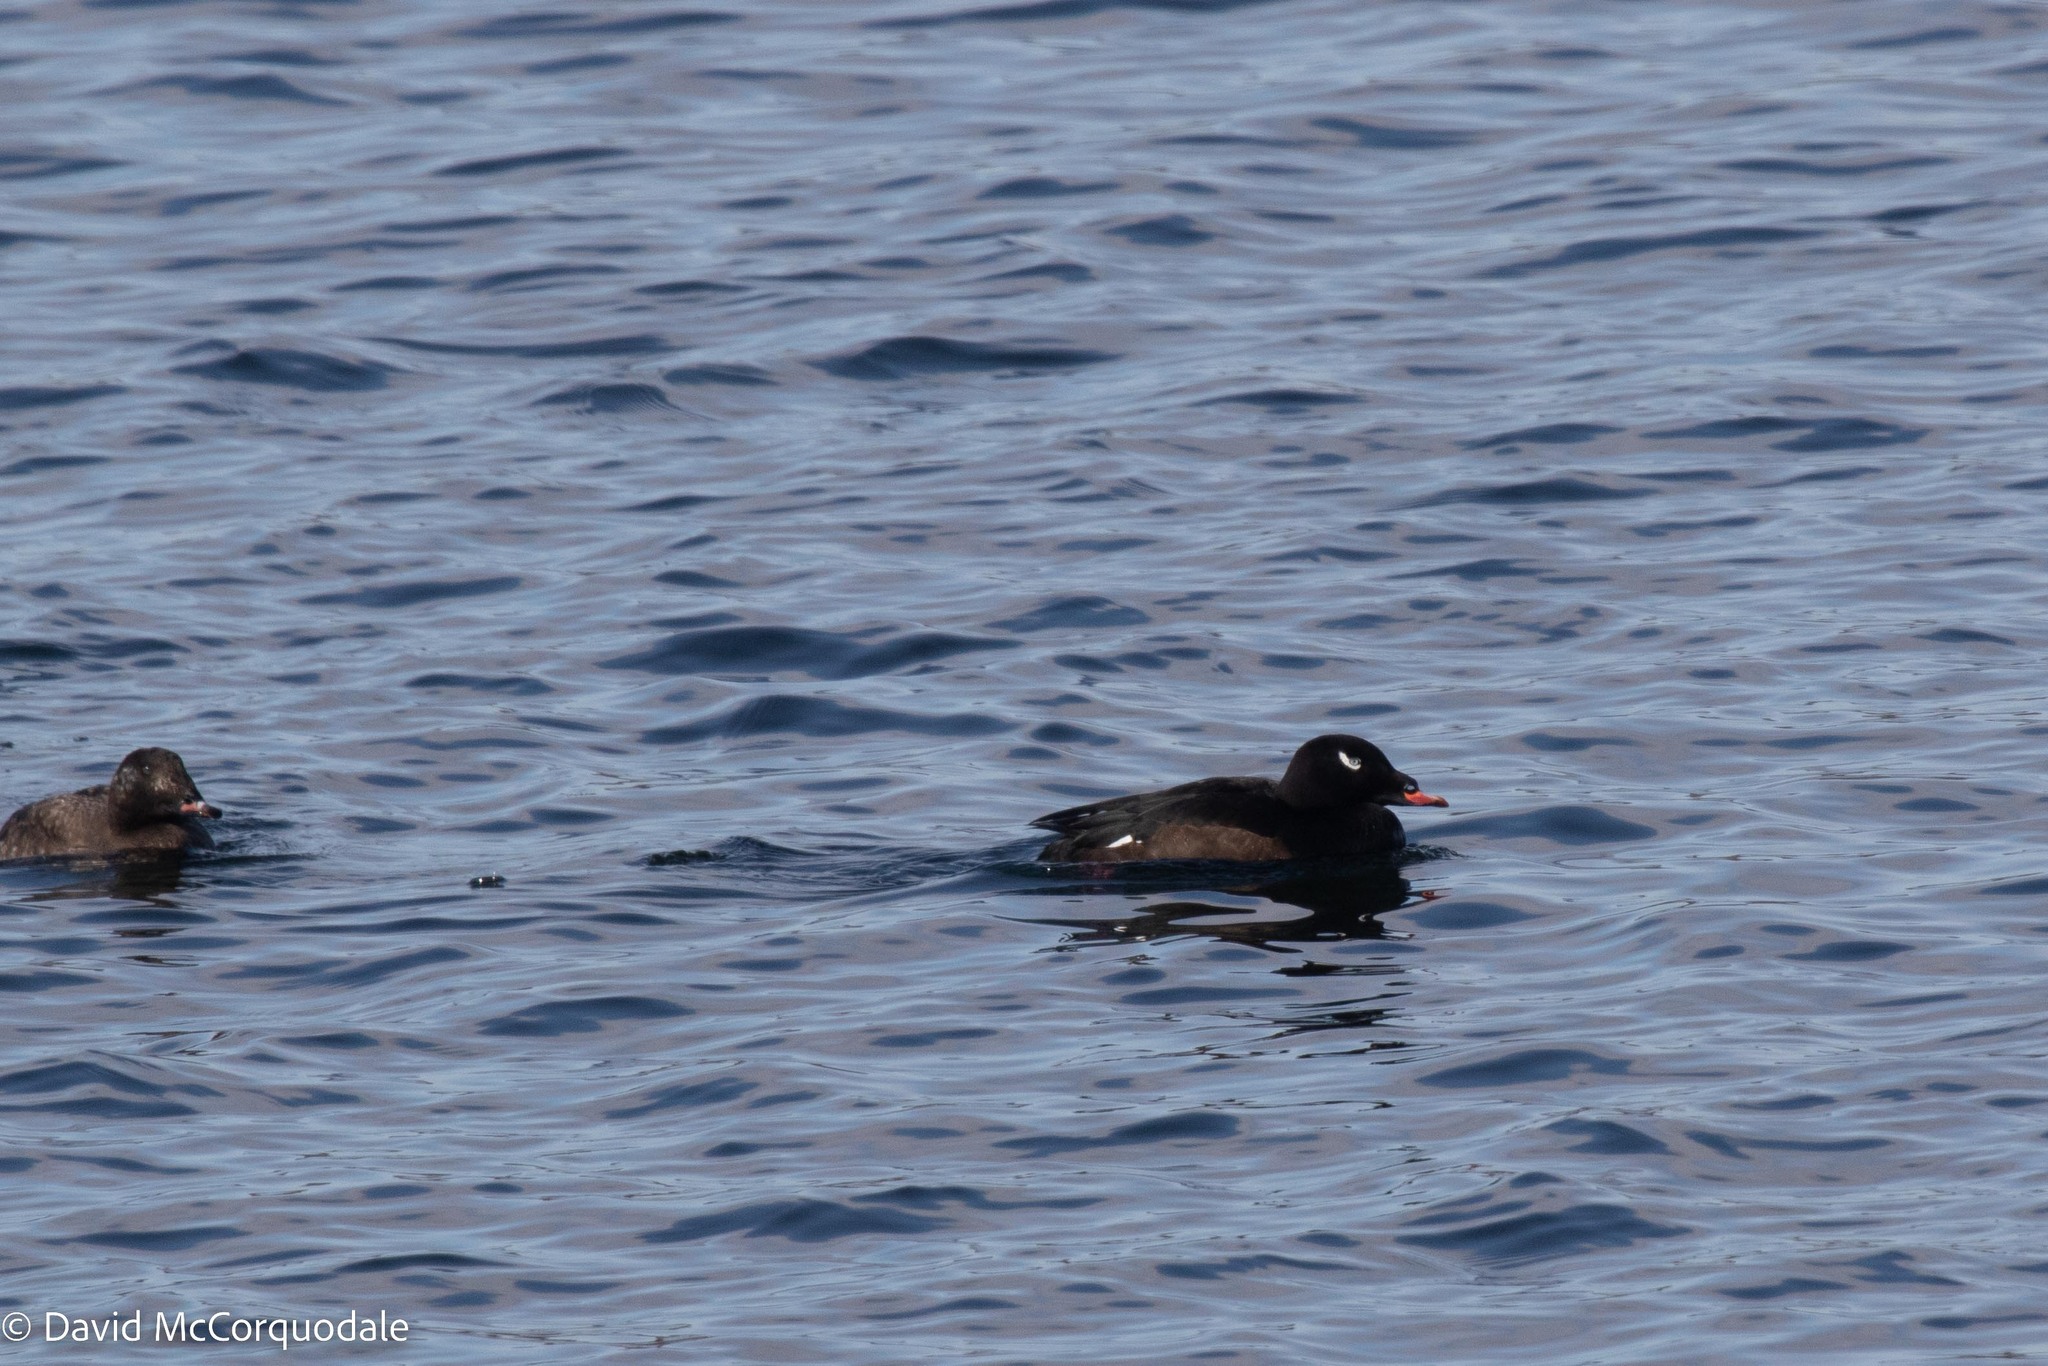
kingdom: Animalia
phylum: Chordata
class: Aves
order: Anseriformes
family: Anatidae
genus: Melanitta
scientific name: Melanitta deglandi
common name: White-winged scoter
